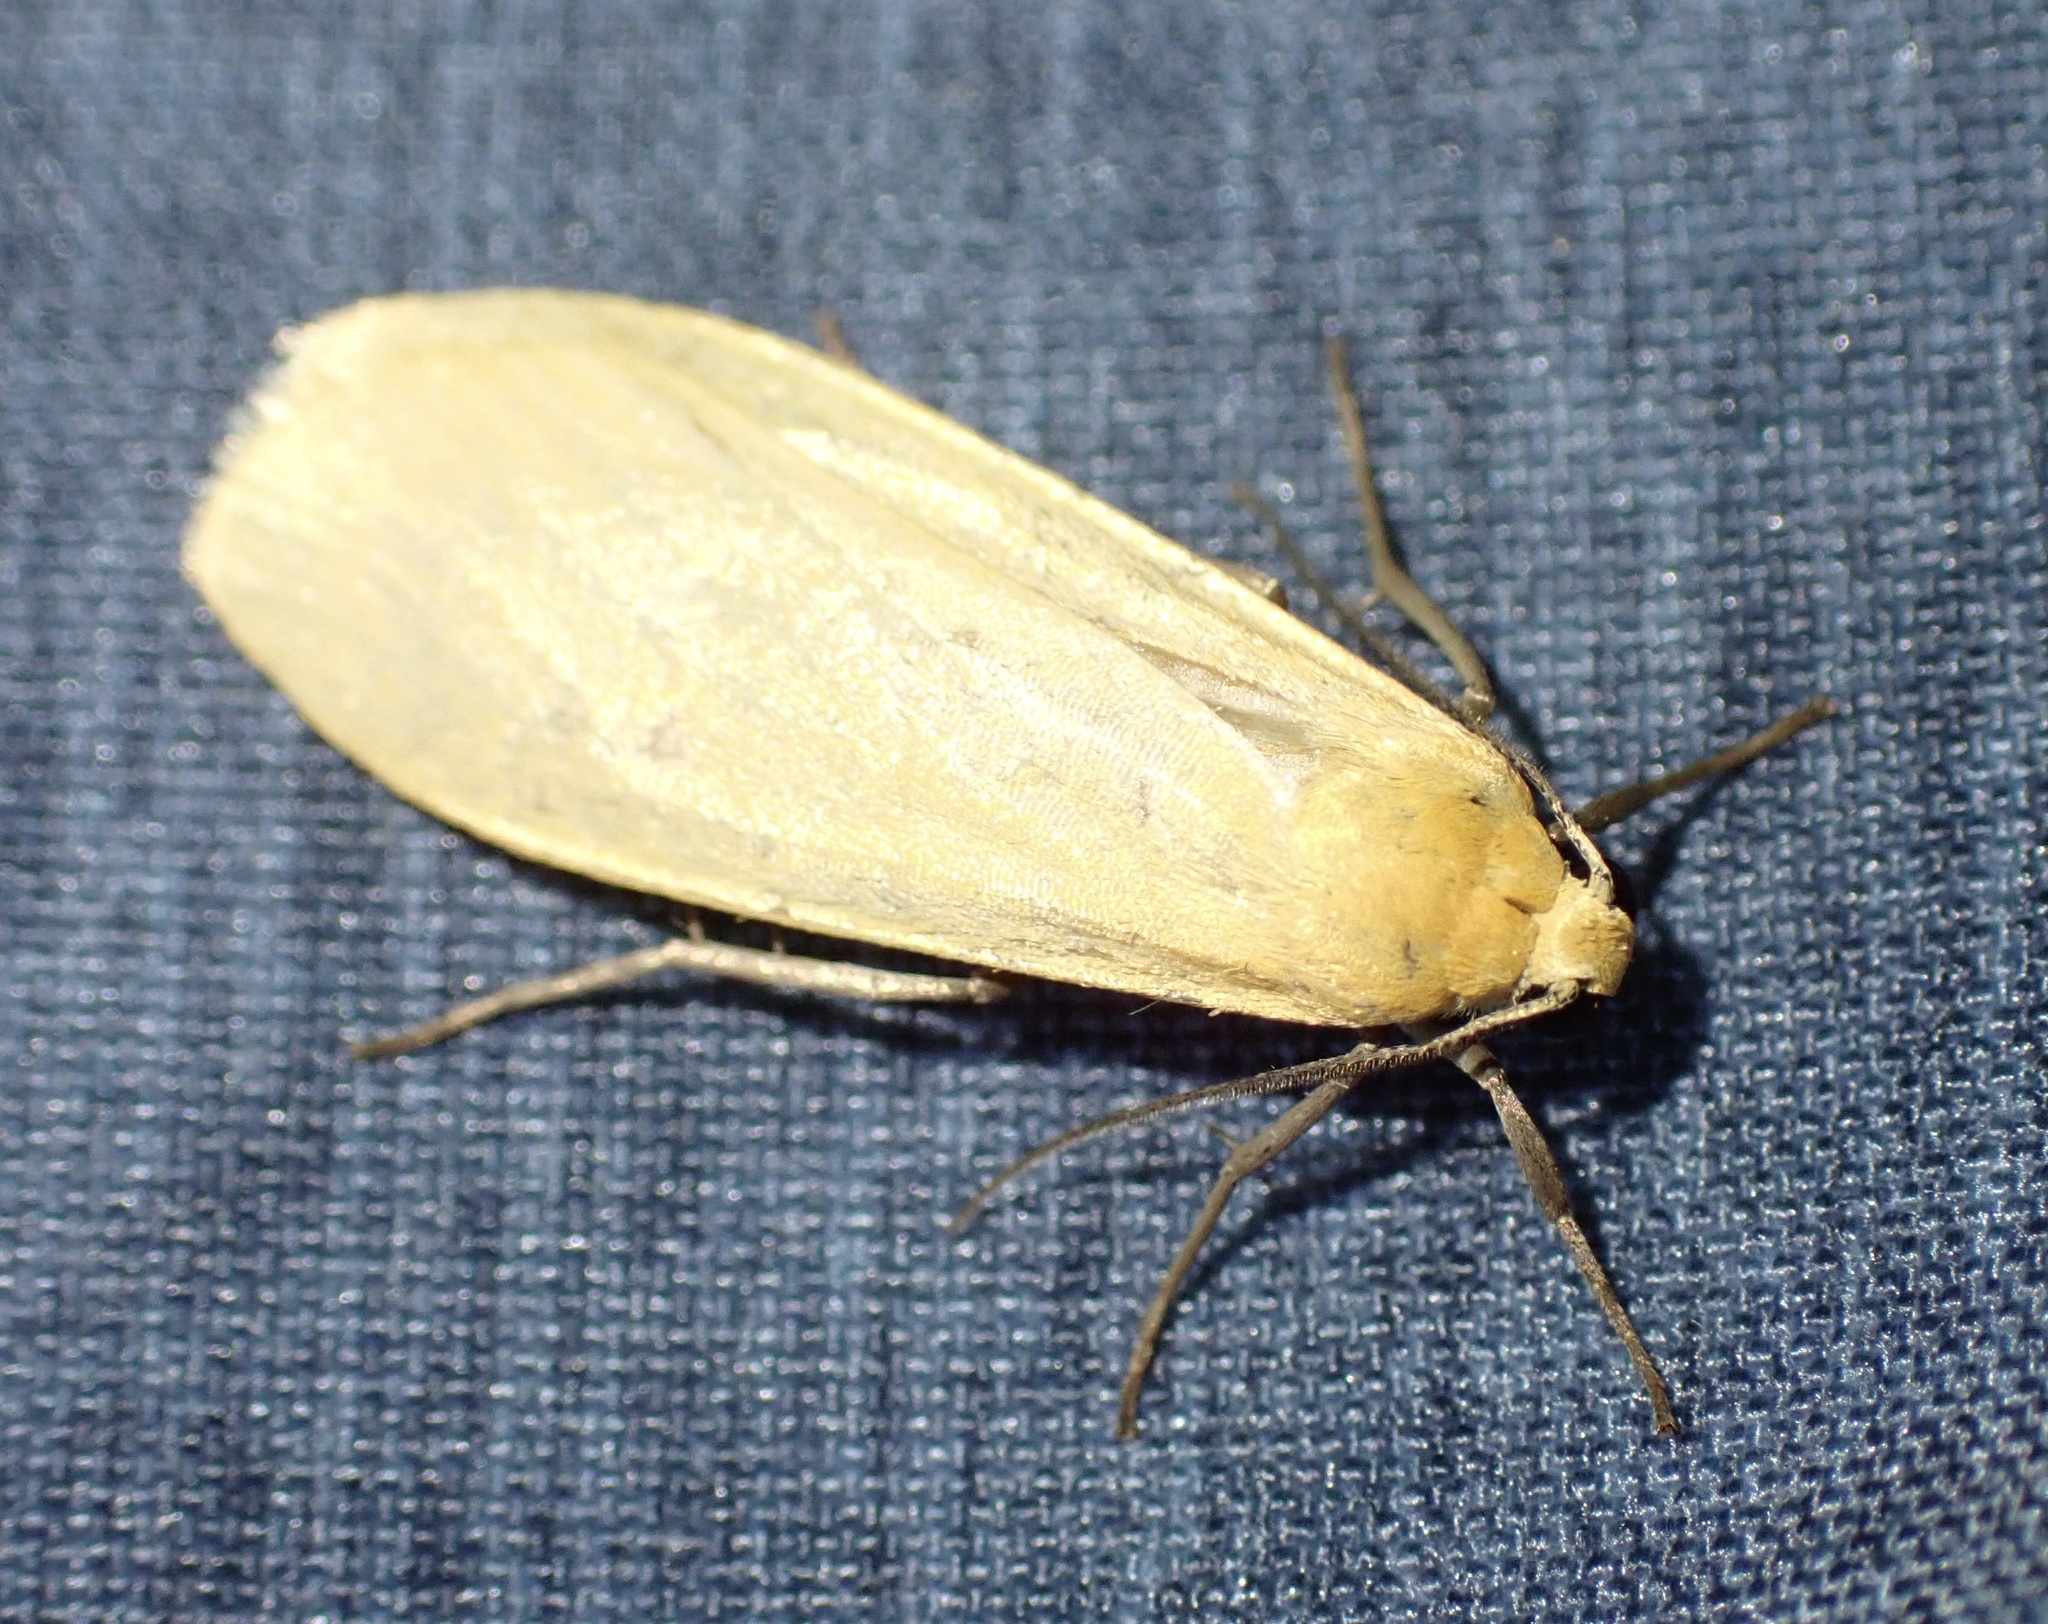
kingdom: Animalia
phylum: Arthropoda
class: Insecta
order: Lepidoptera
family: Erebidae
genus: Wittia
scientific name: Wittia sororcula
